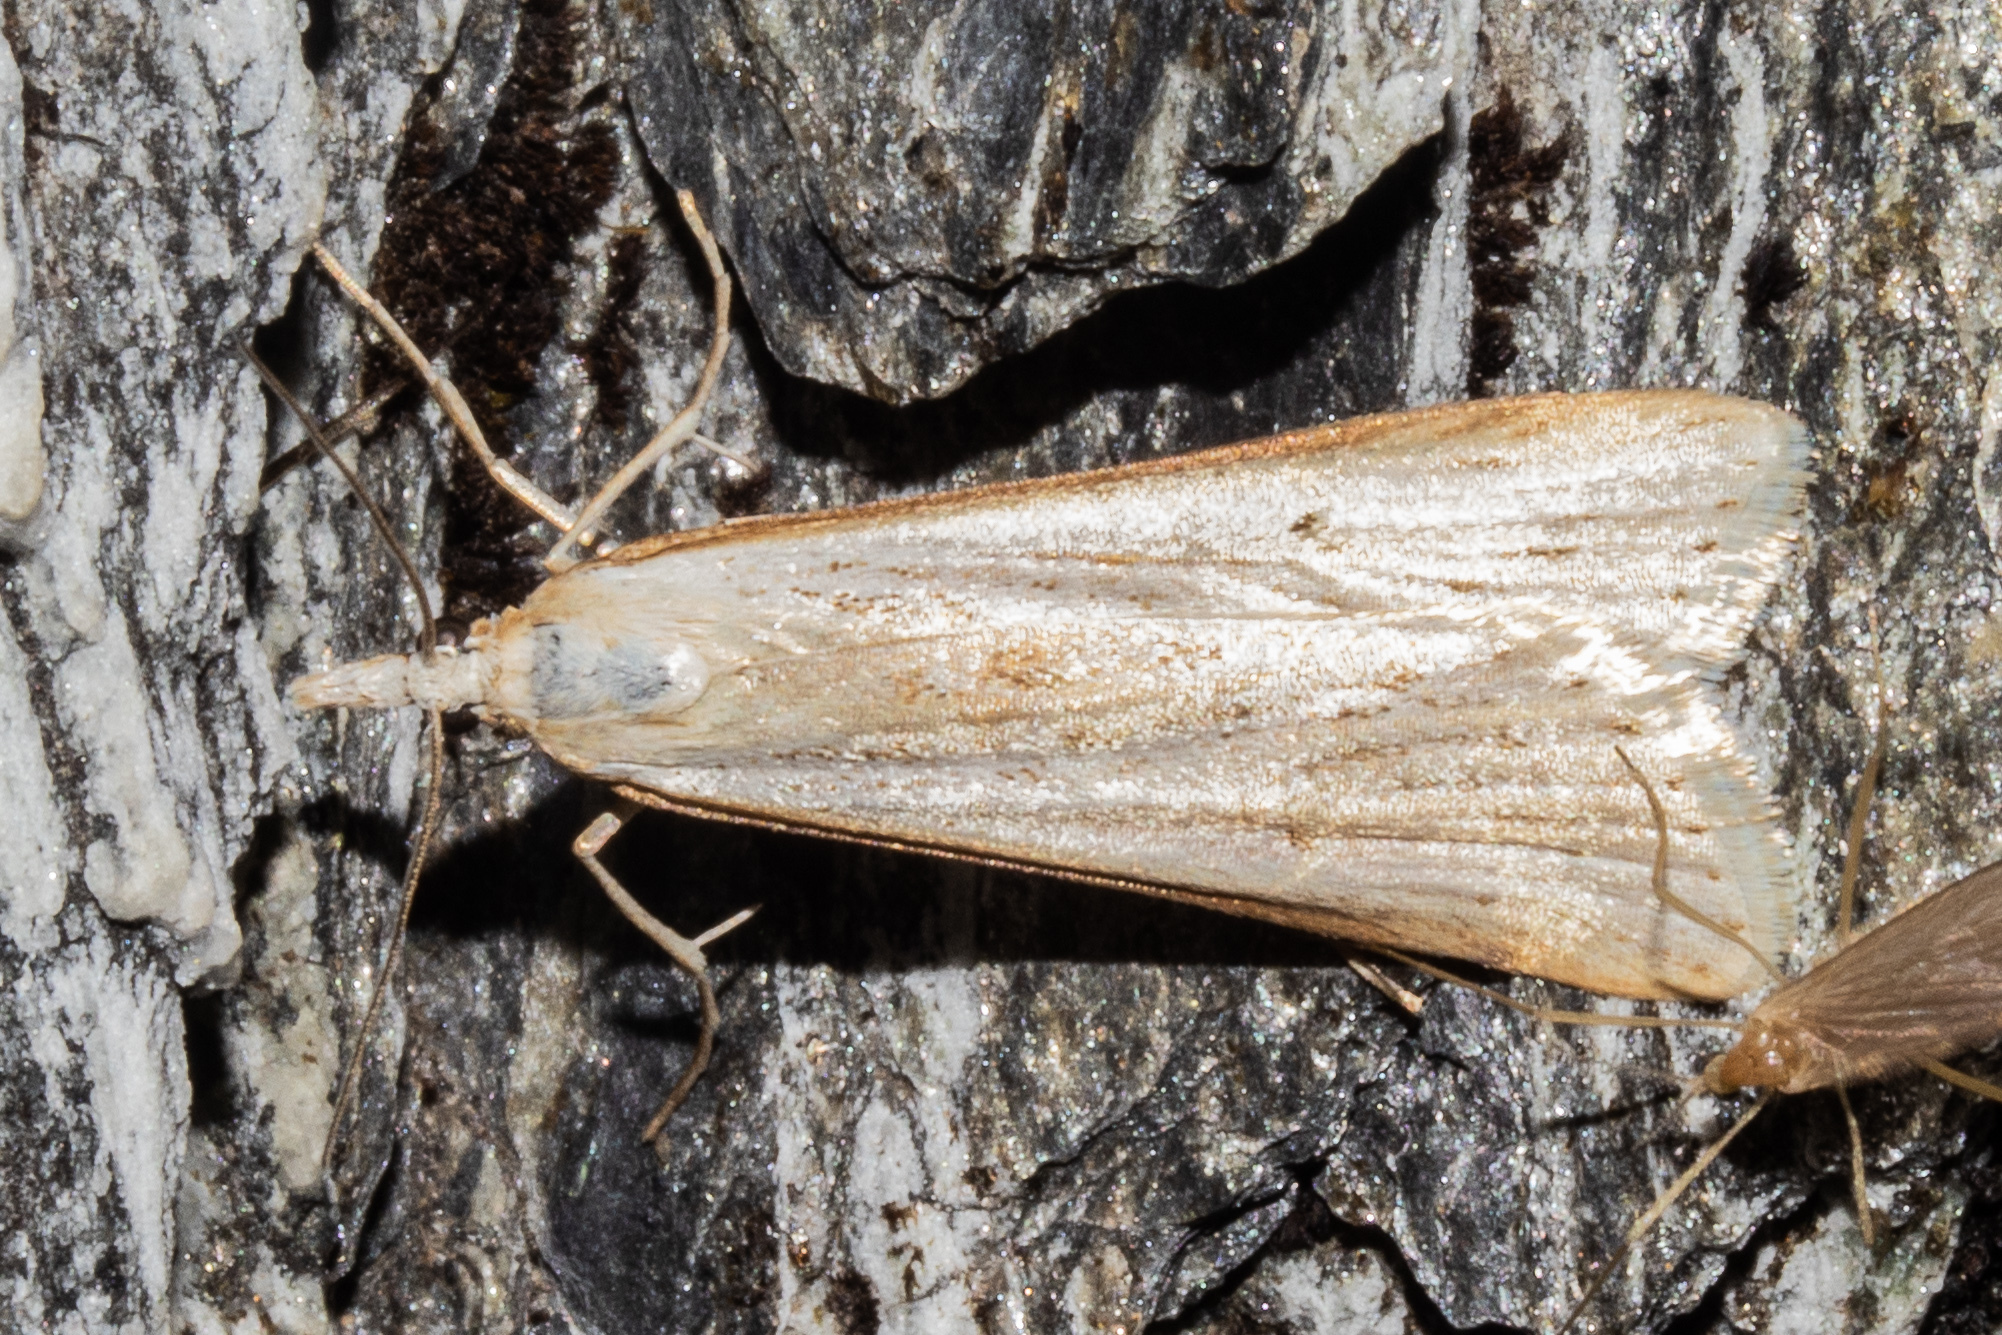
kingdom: Animalia
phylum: Arthropoda
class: Insecta
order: Lepidoptera
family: Crambidae
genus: Scoparia
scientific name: Scoparia niphospora
